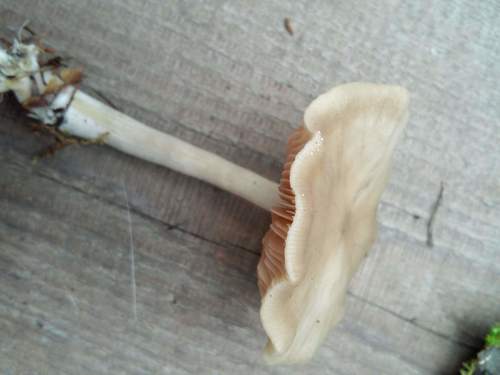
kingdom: Fungi
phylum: Basidiomycota
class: Agaricomycetes
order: Agaricales
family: Entolomataceae
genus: Entoloma
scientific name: Entoloma
